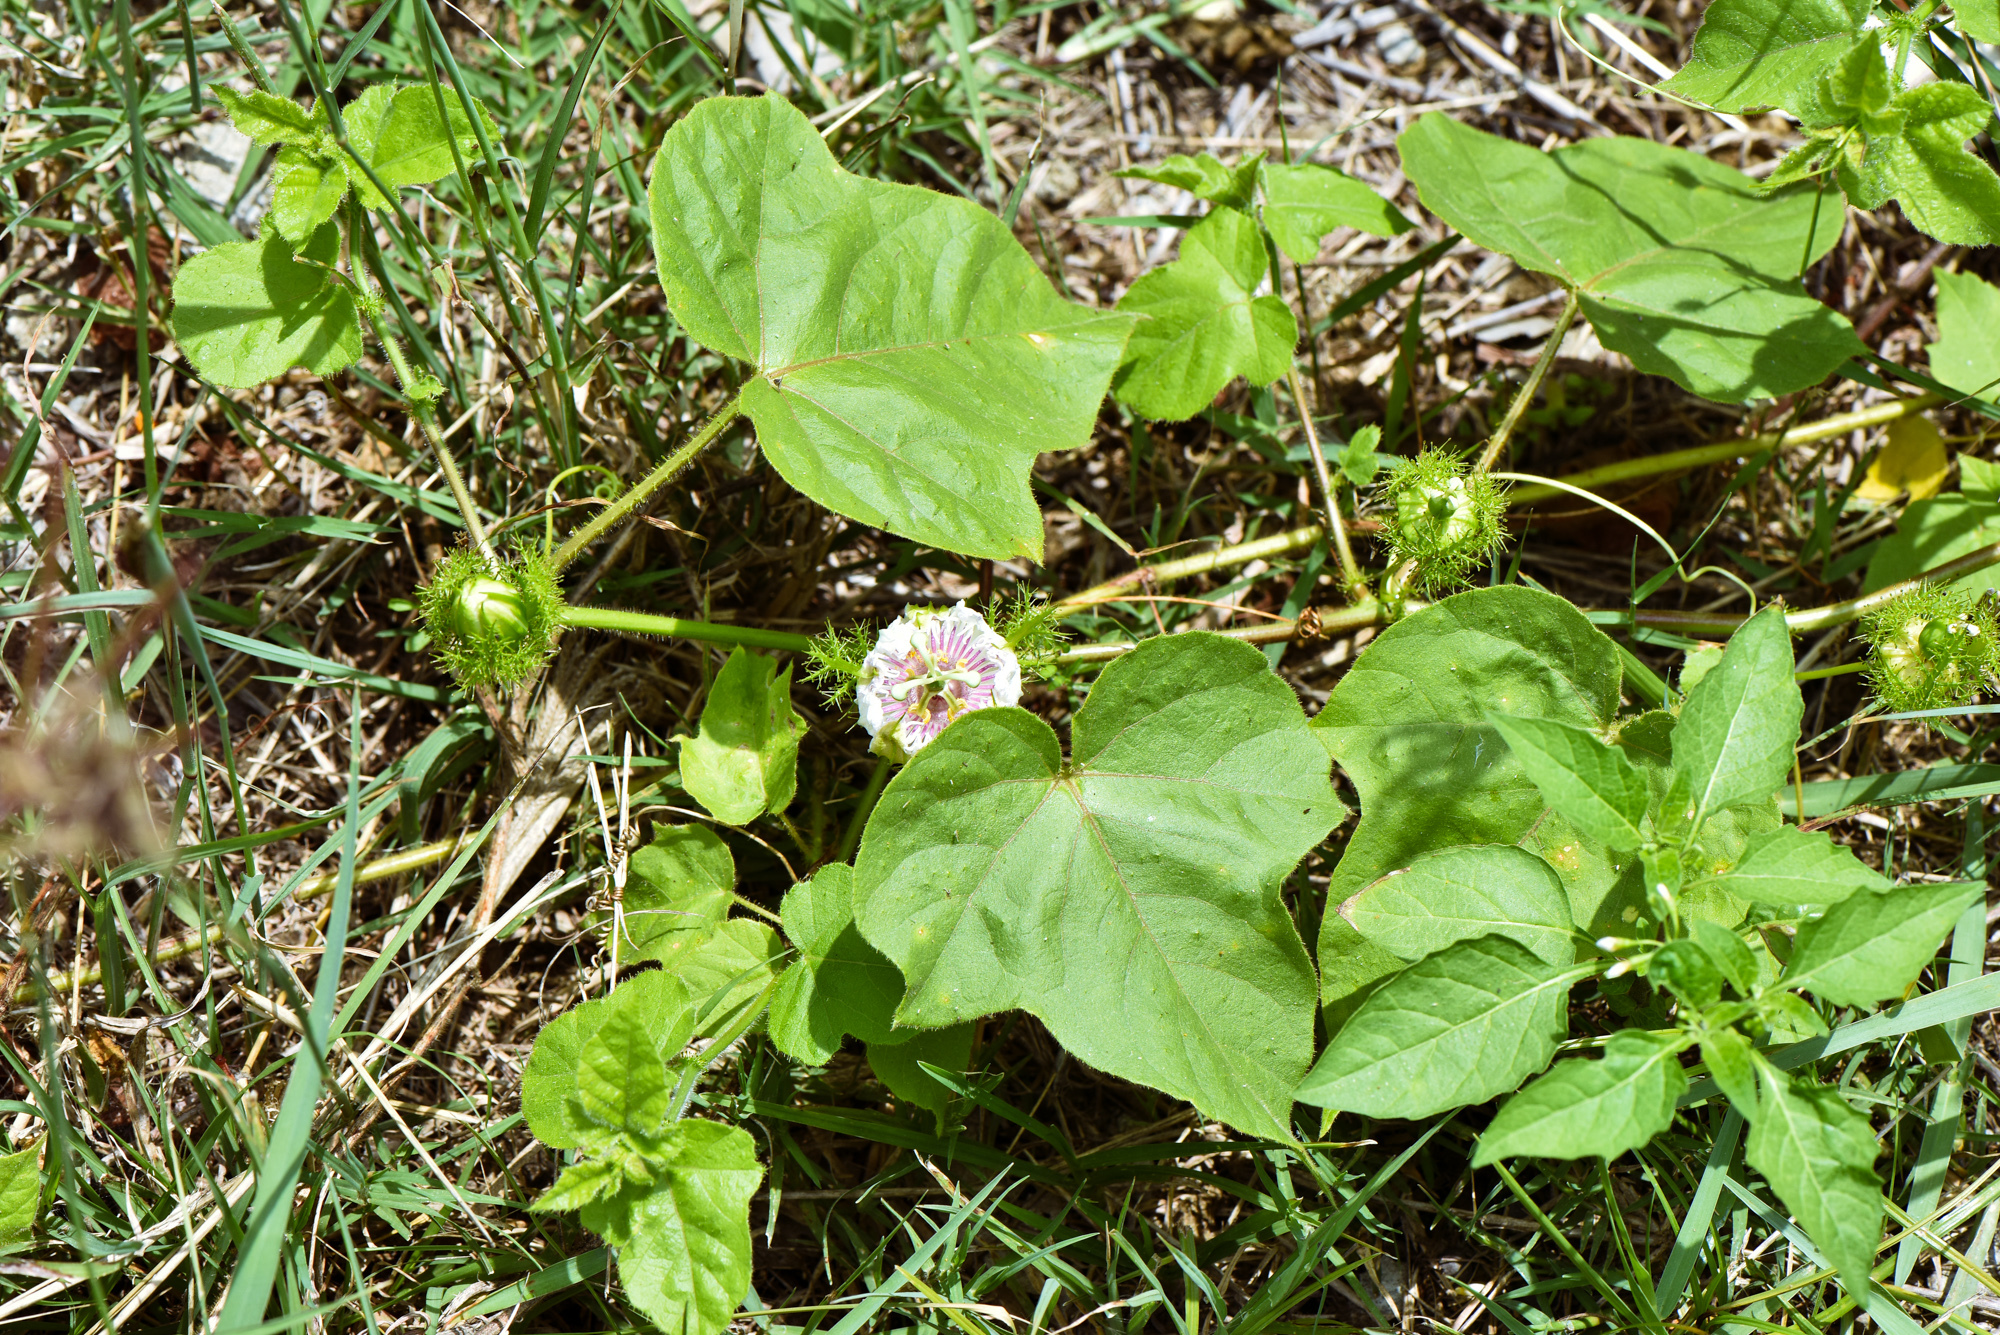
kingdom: Plantae
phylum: Tracheophyta
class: Magnoliopsida
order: Malpighiales
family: Passifloraceae
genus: Passiflora
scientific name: Passiflora vesicaria
